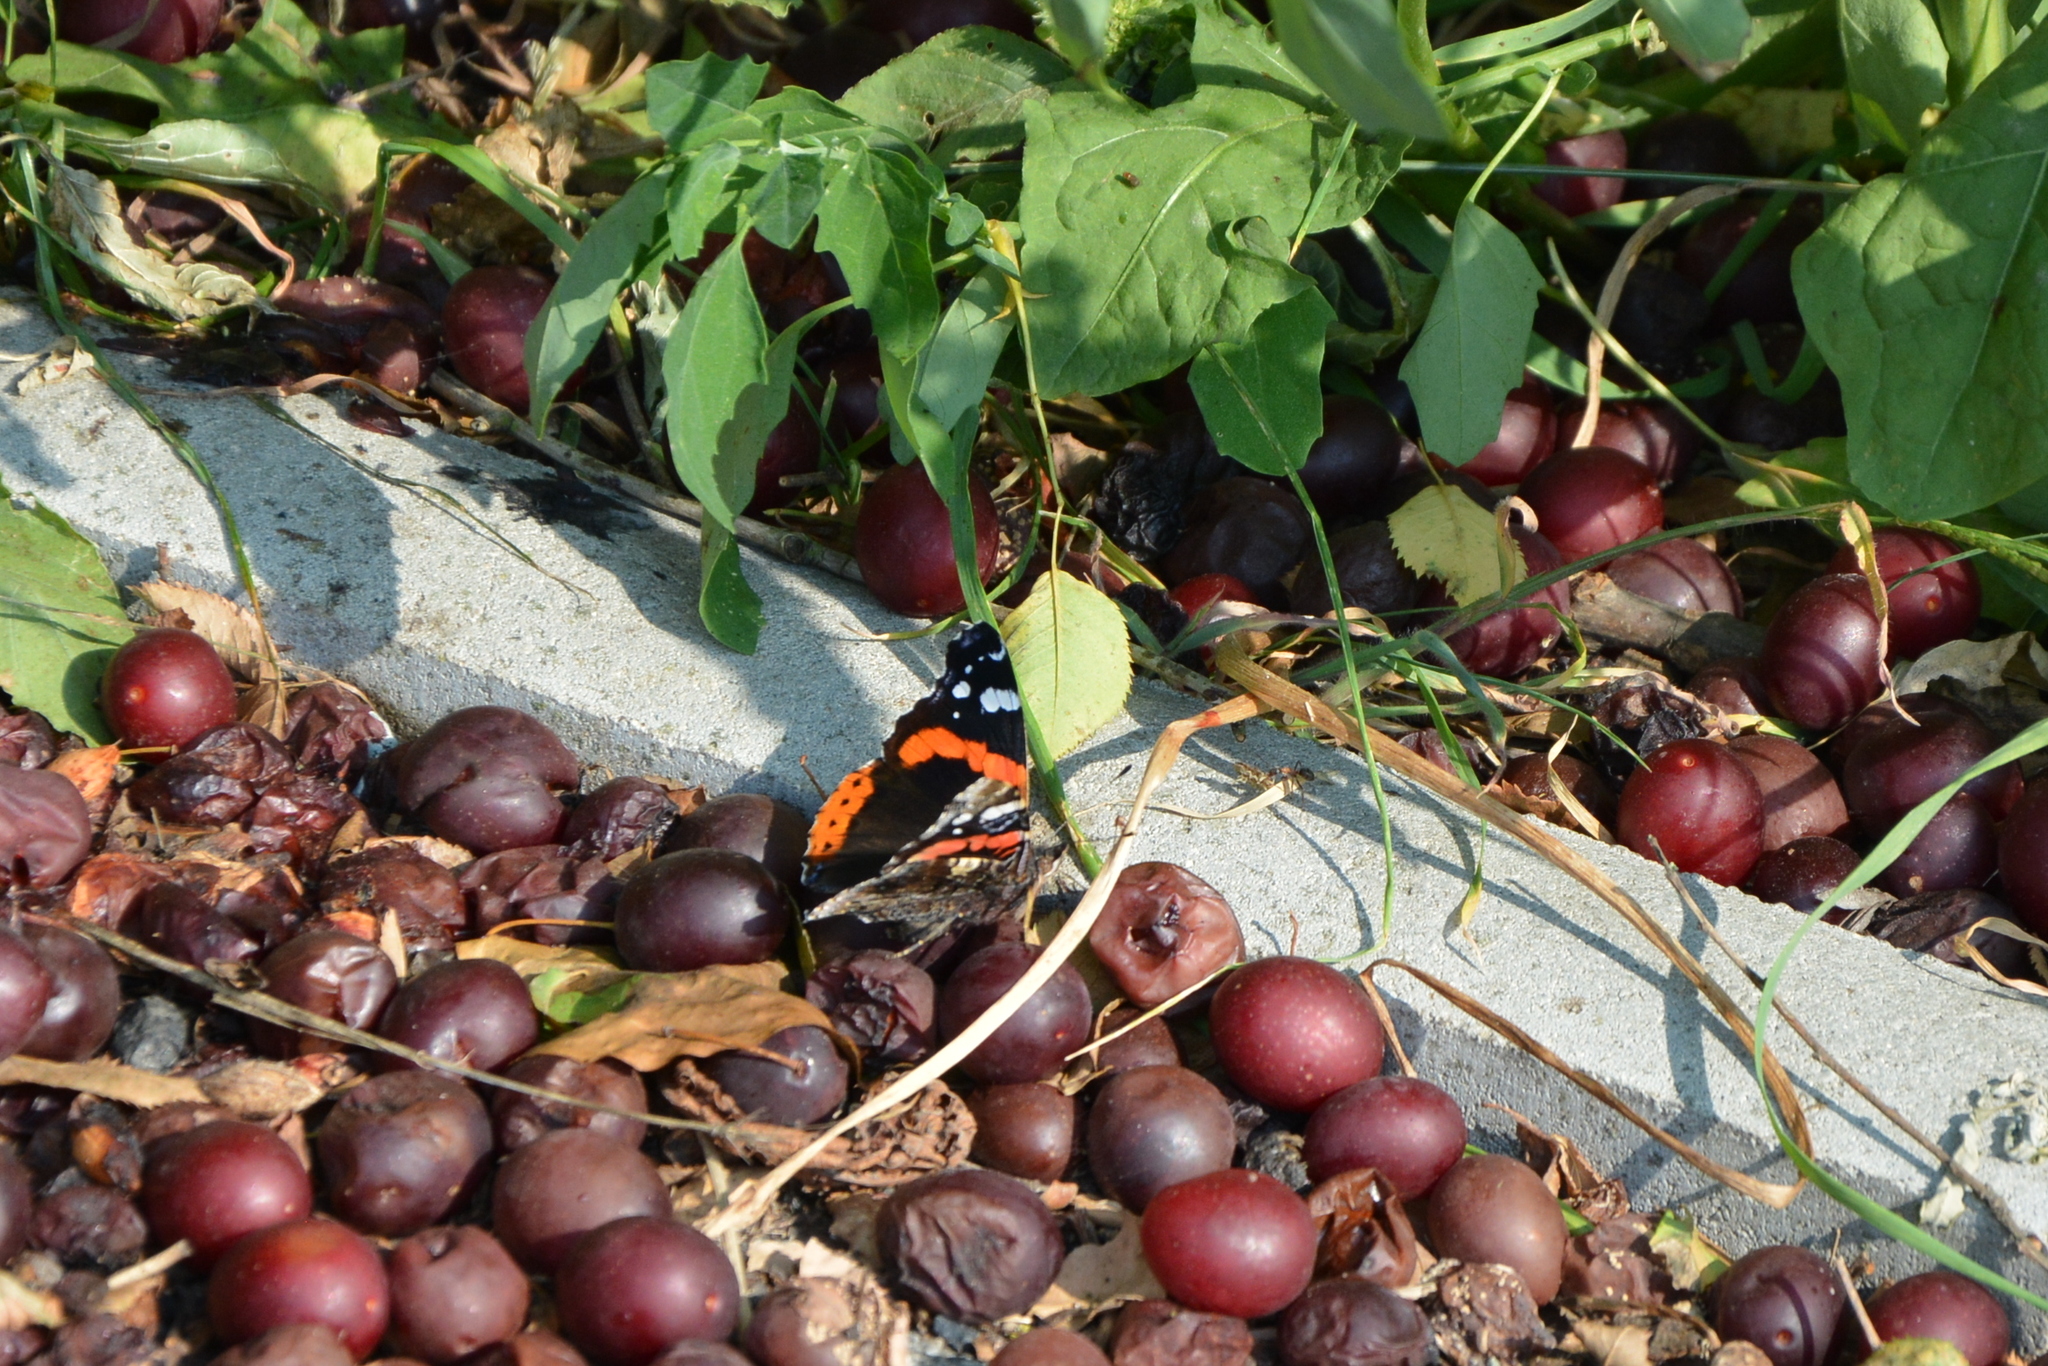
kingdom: Animalia
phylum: Arthropoda
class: Insecta
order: Lepidoptera
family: Nymphalidae
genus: Vanessa
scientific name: Vanessa atalanta
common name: Red admiral
